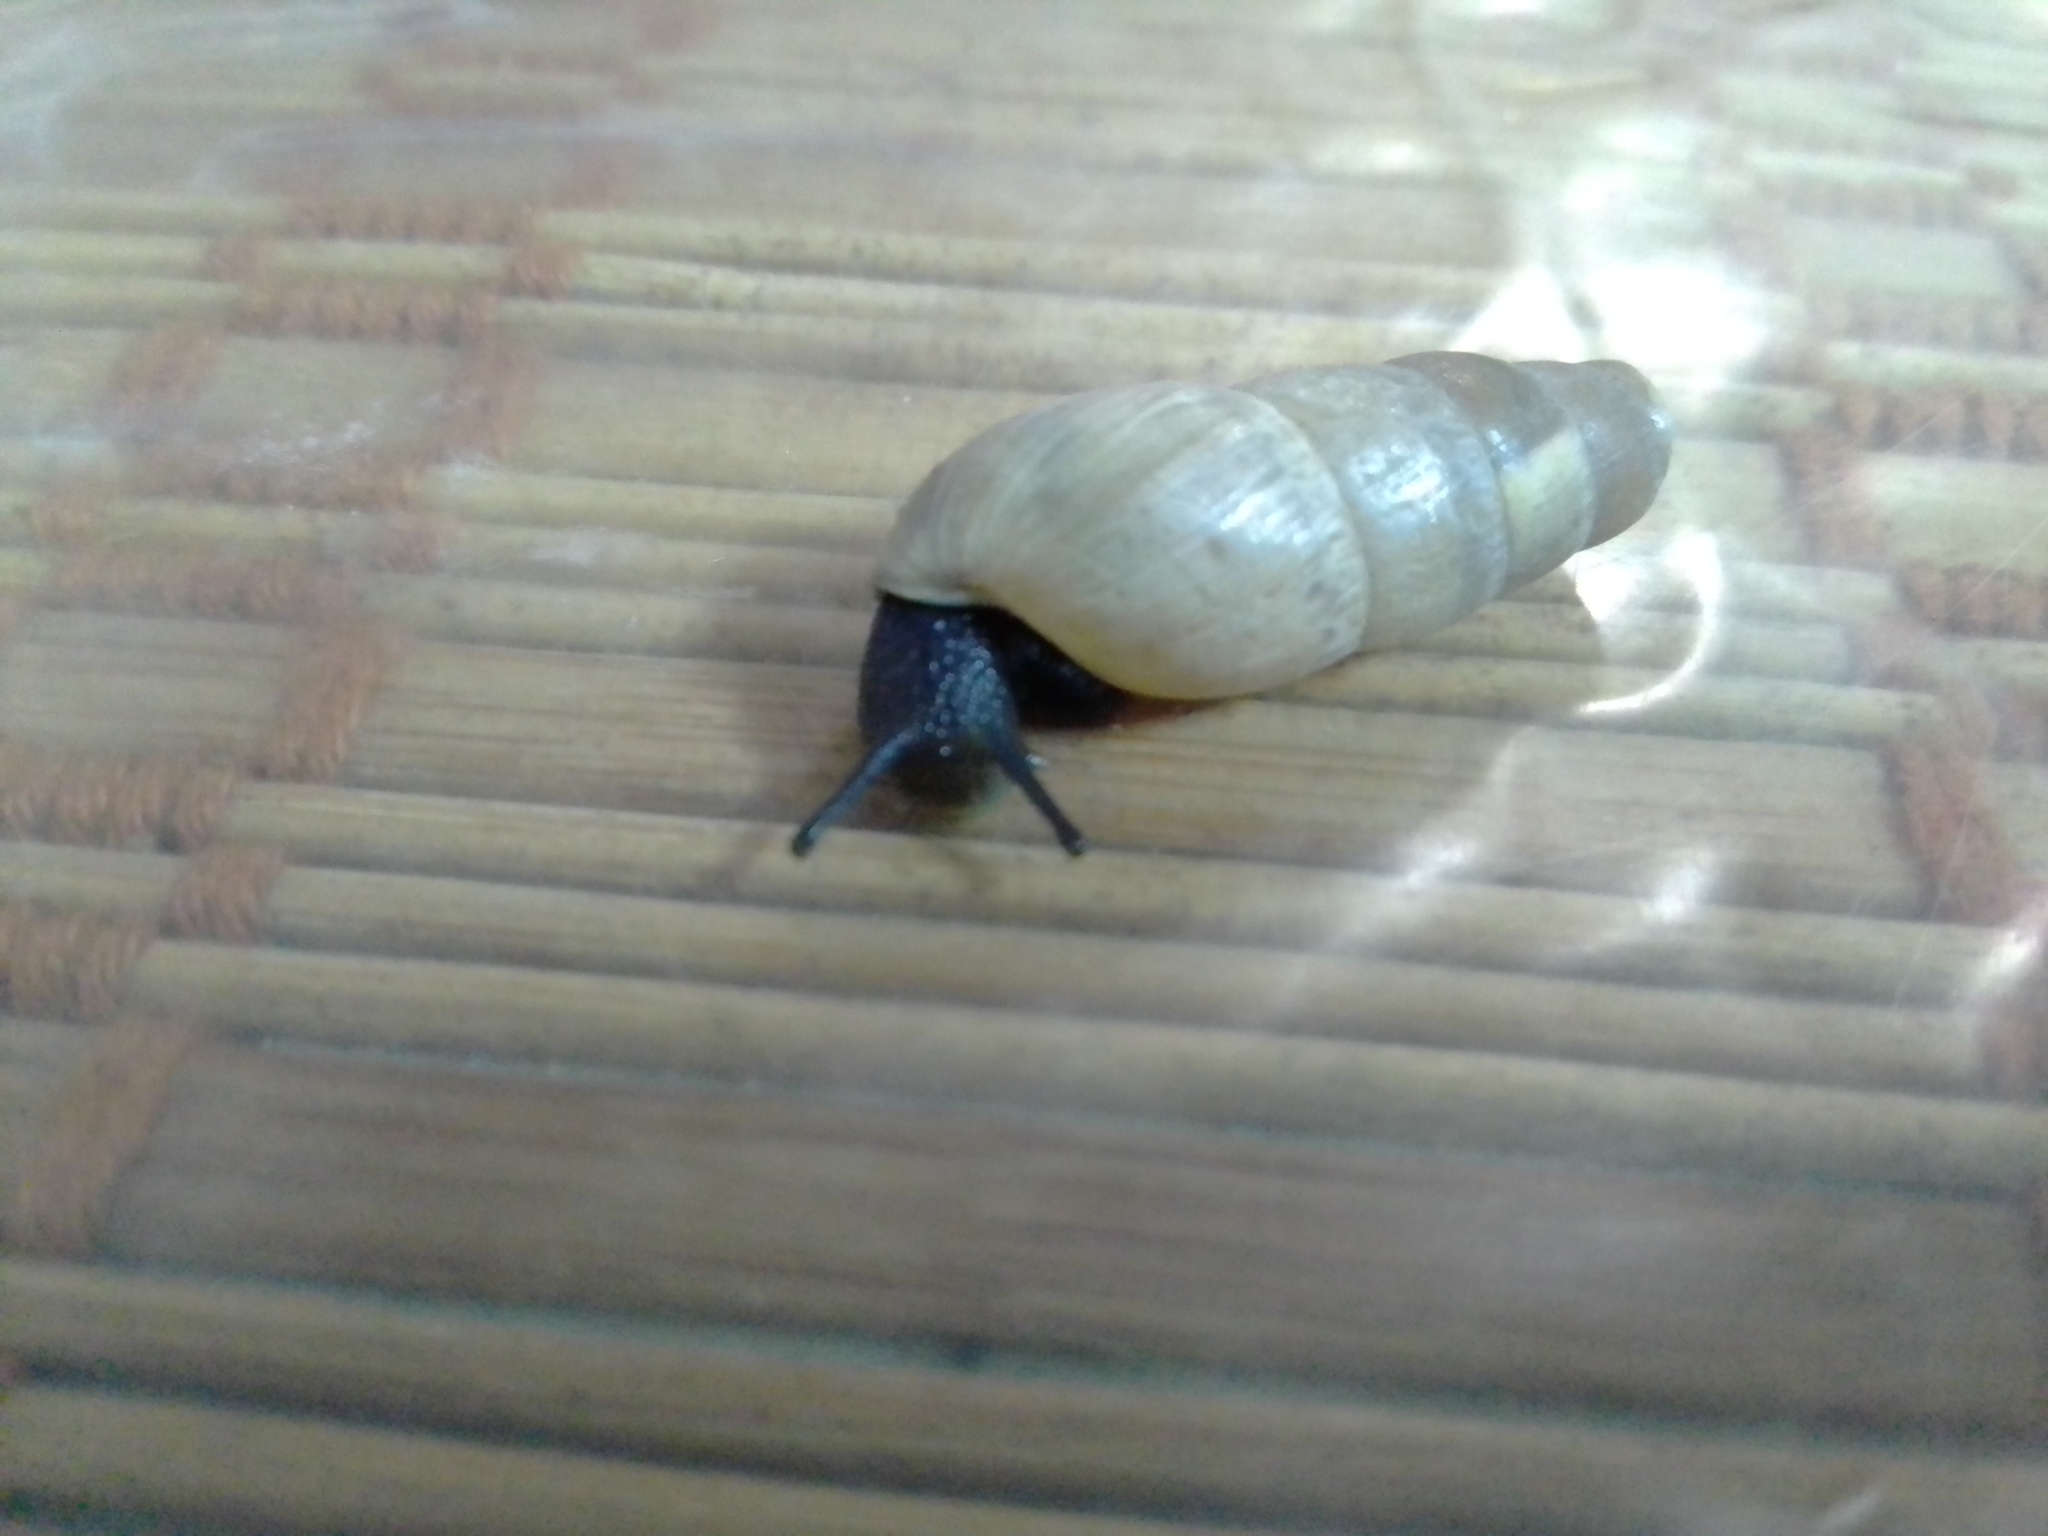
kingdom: Animalia
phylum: Mollusca
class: Gastropoda
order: Stylommatophora
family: Achatinidae
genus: Rumina
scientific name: Rumina decollata
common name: Decollate snail
